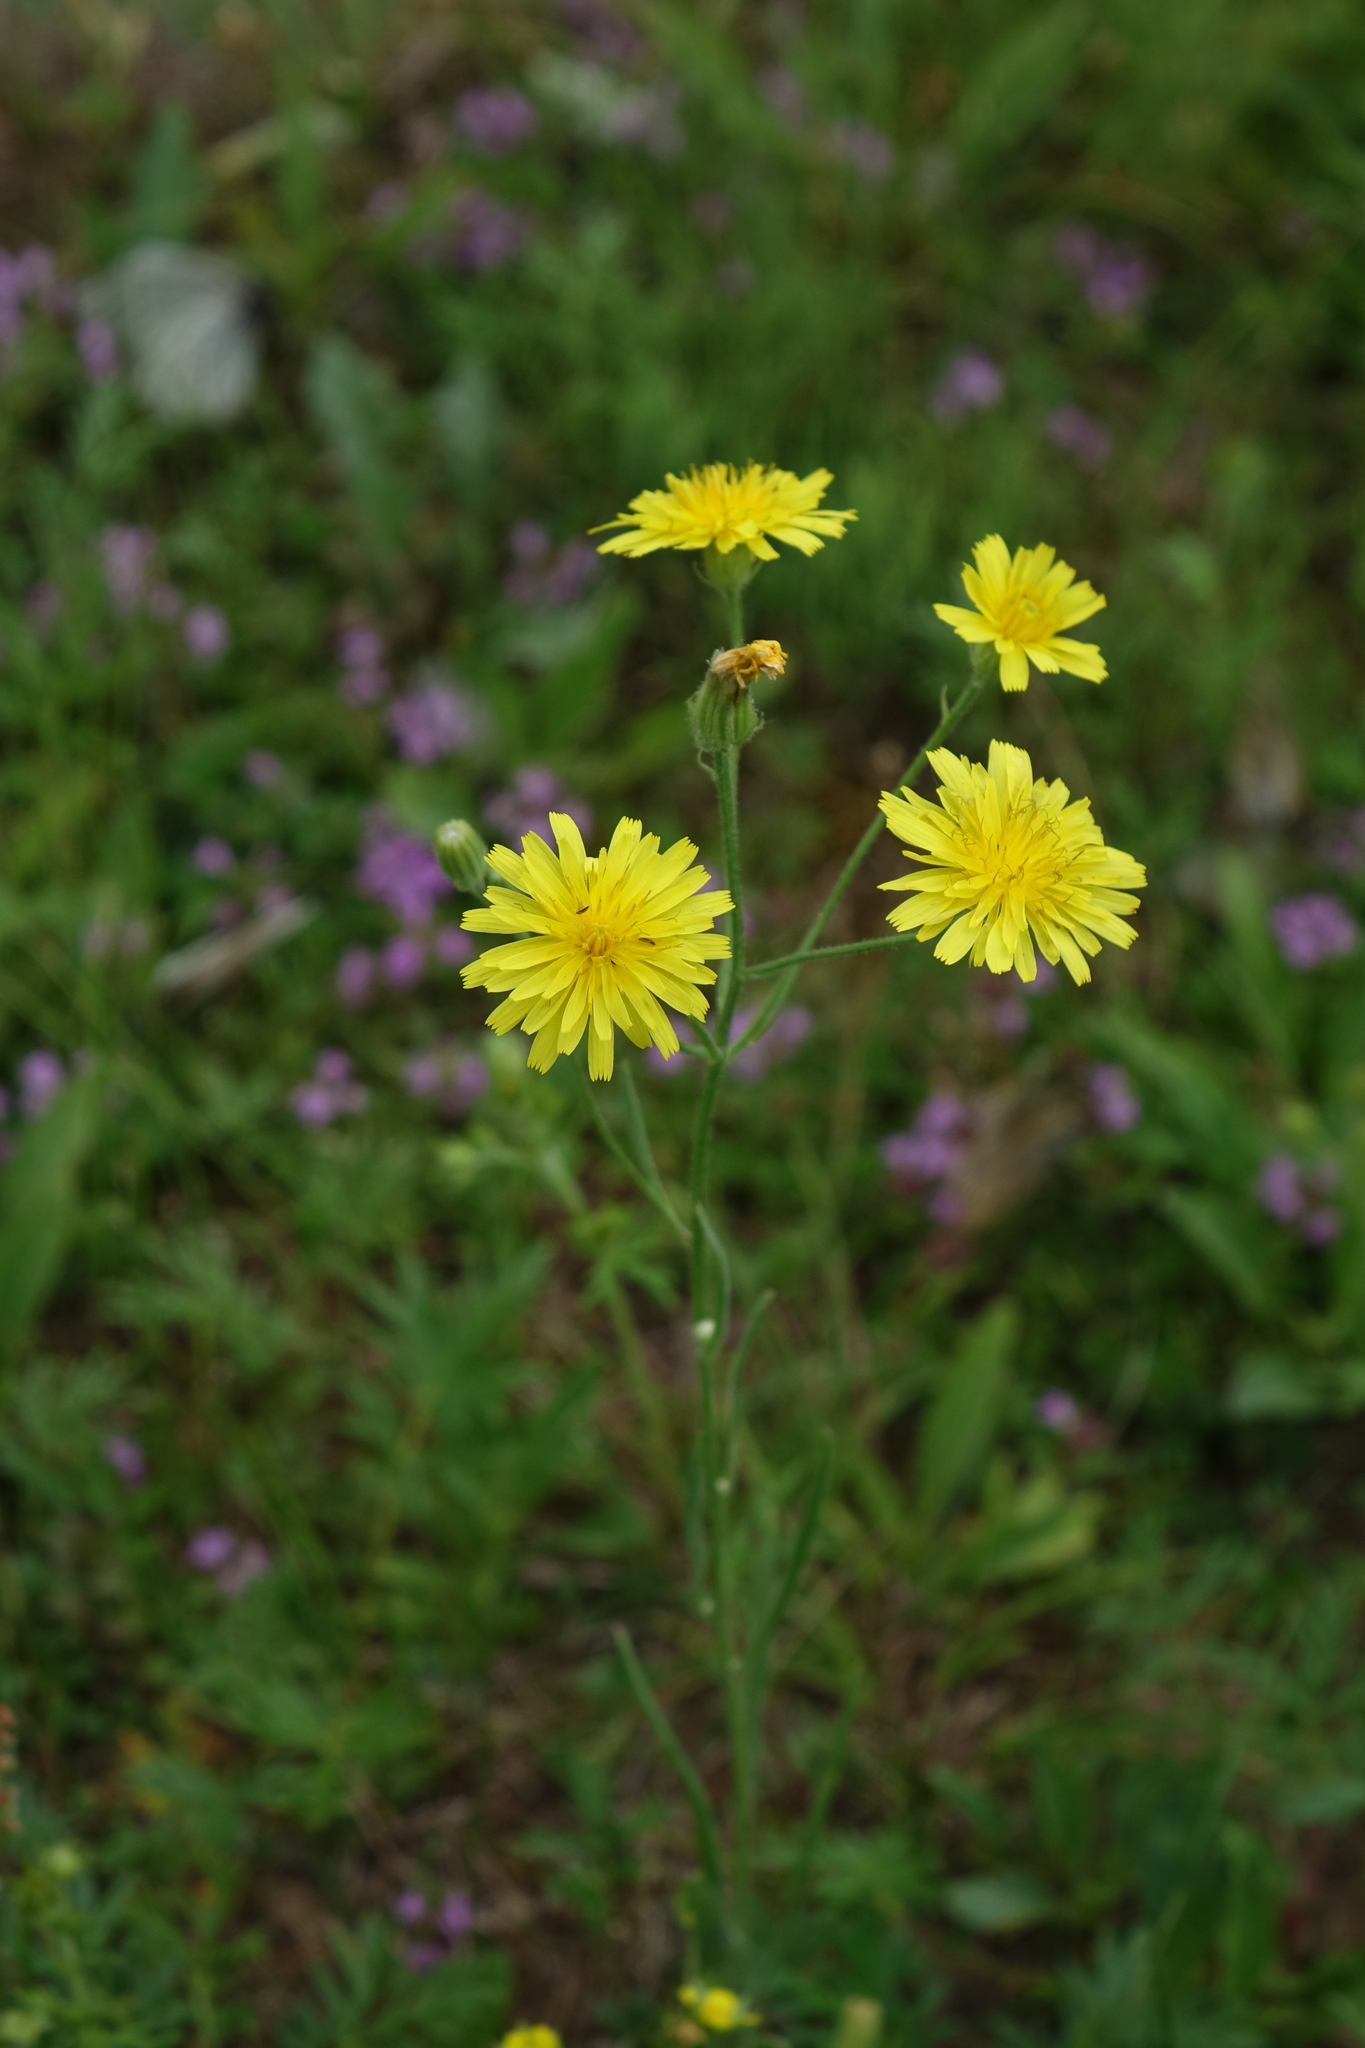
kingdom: Plantae
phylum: Tracheophyta
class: Magnoliopsida
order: Asterales
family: Asteraceae
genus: Crepis
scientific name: Crepis tectorum
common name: Narrow-leaved hawk's-beard
